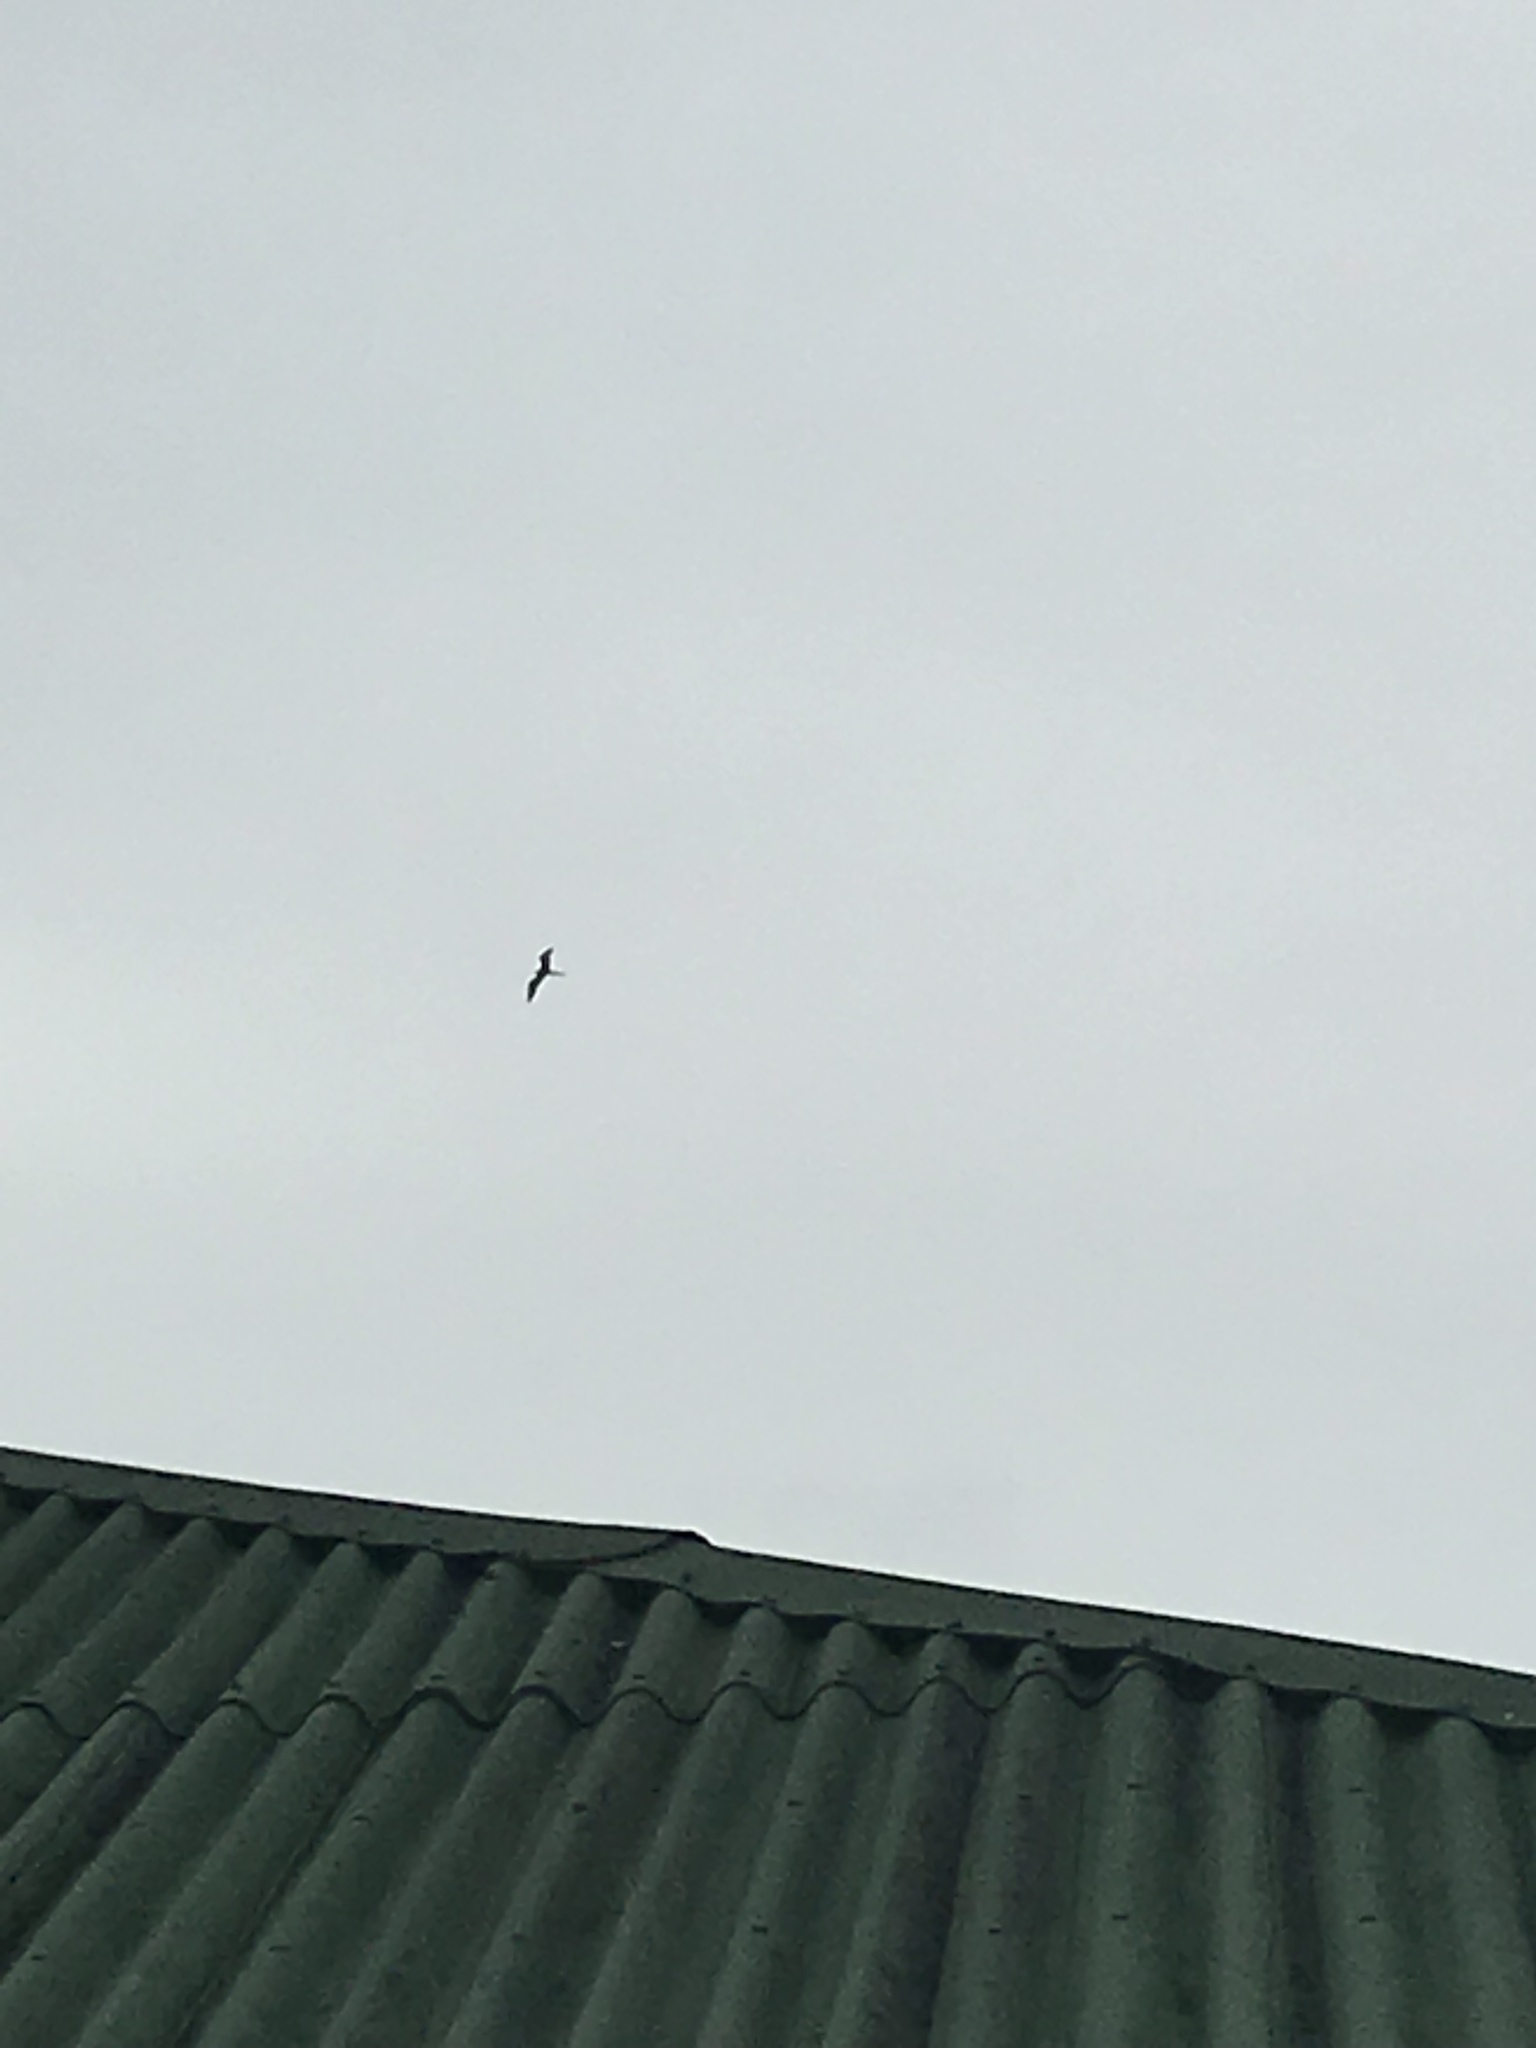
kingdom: Animalia
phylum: Chordata
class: Aves
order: Suliformes
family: Fregatidae
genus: Fregata
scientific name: Fregata magnificens
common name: Magnificent frigatebird
